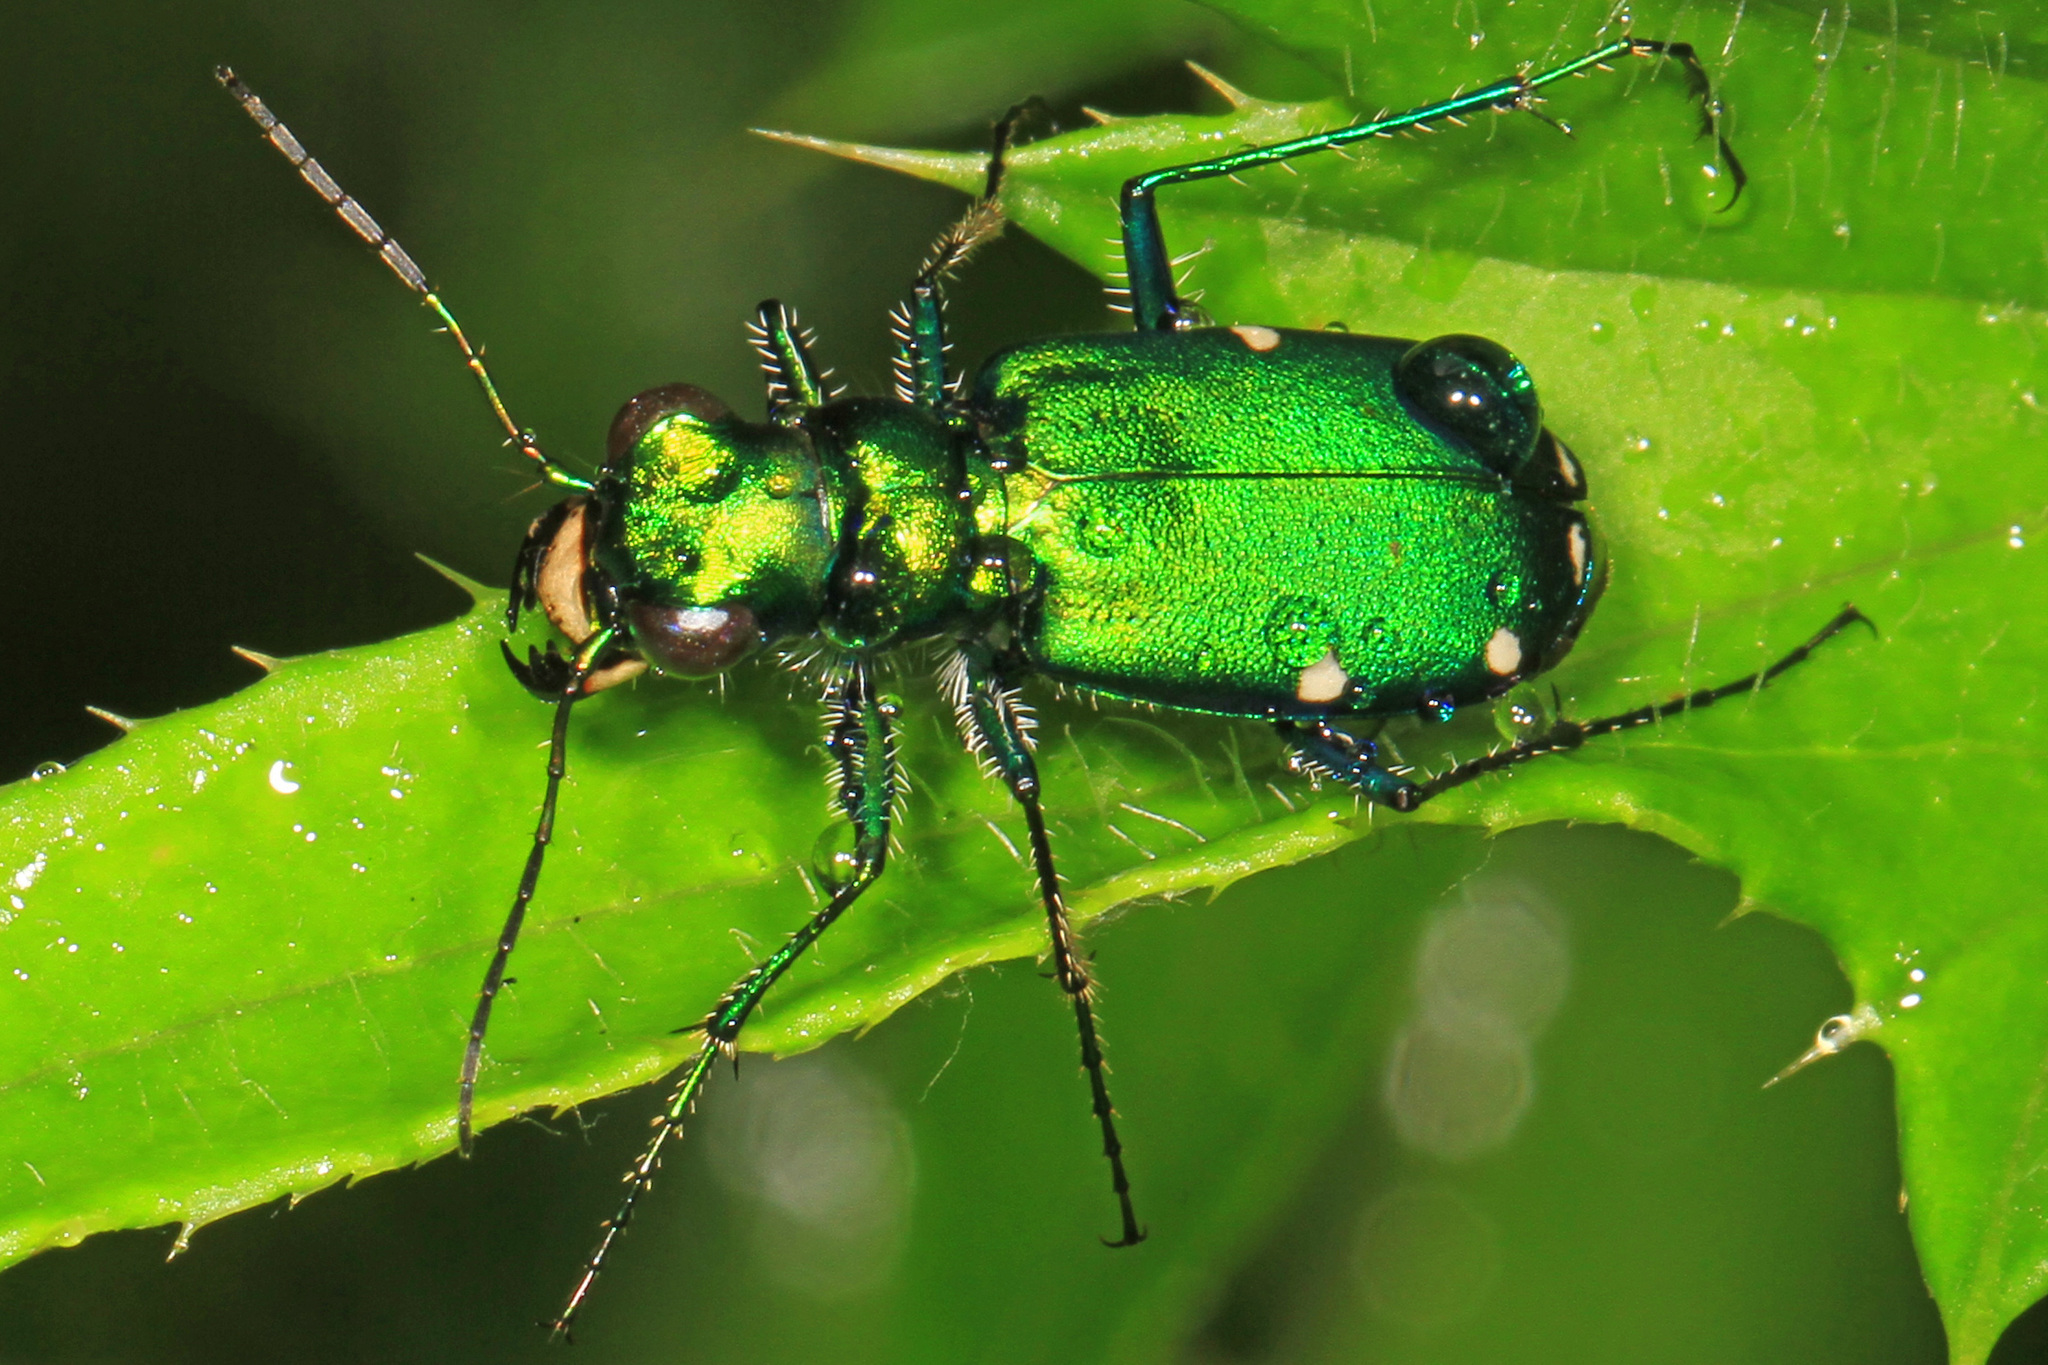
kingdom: Animalia
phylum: Arthropoda
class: Insecta
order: Coleoptera
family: Carabidae
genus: Cicindela
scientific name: Cicindela sexguttata
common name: Six-spotted tiger beetle
